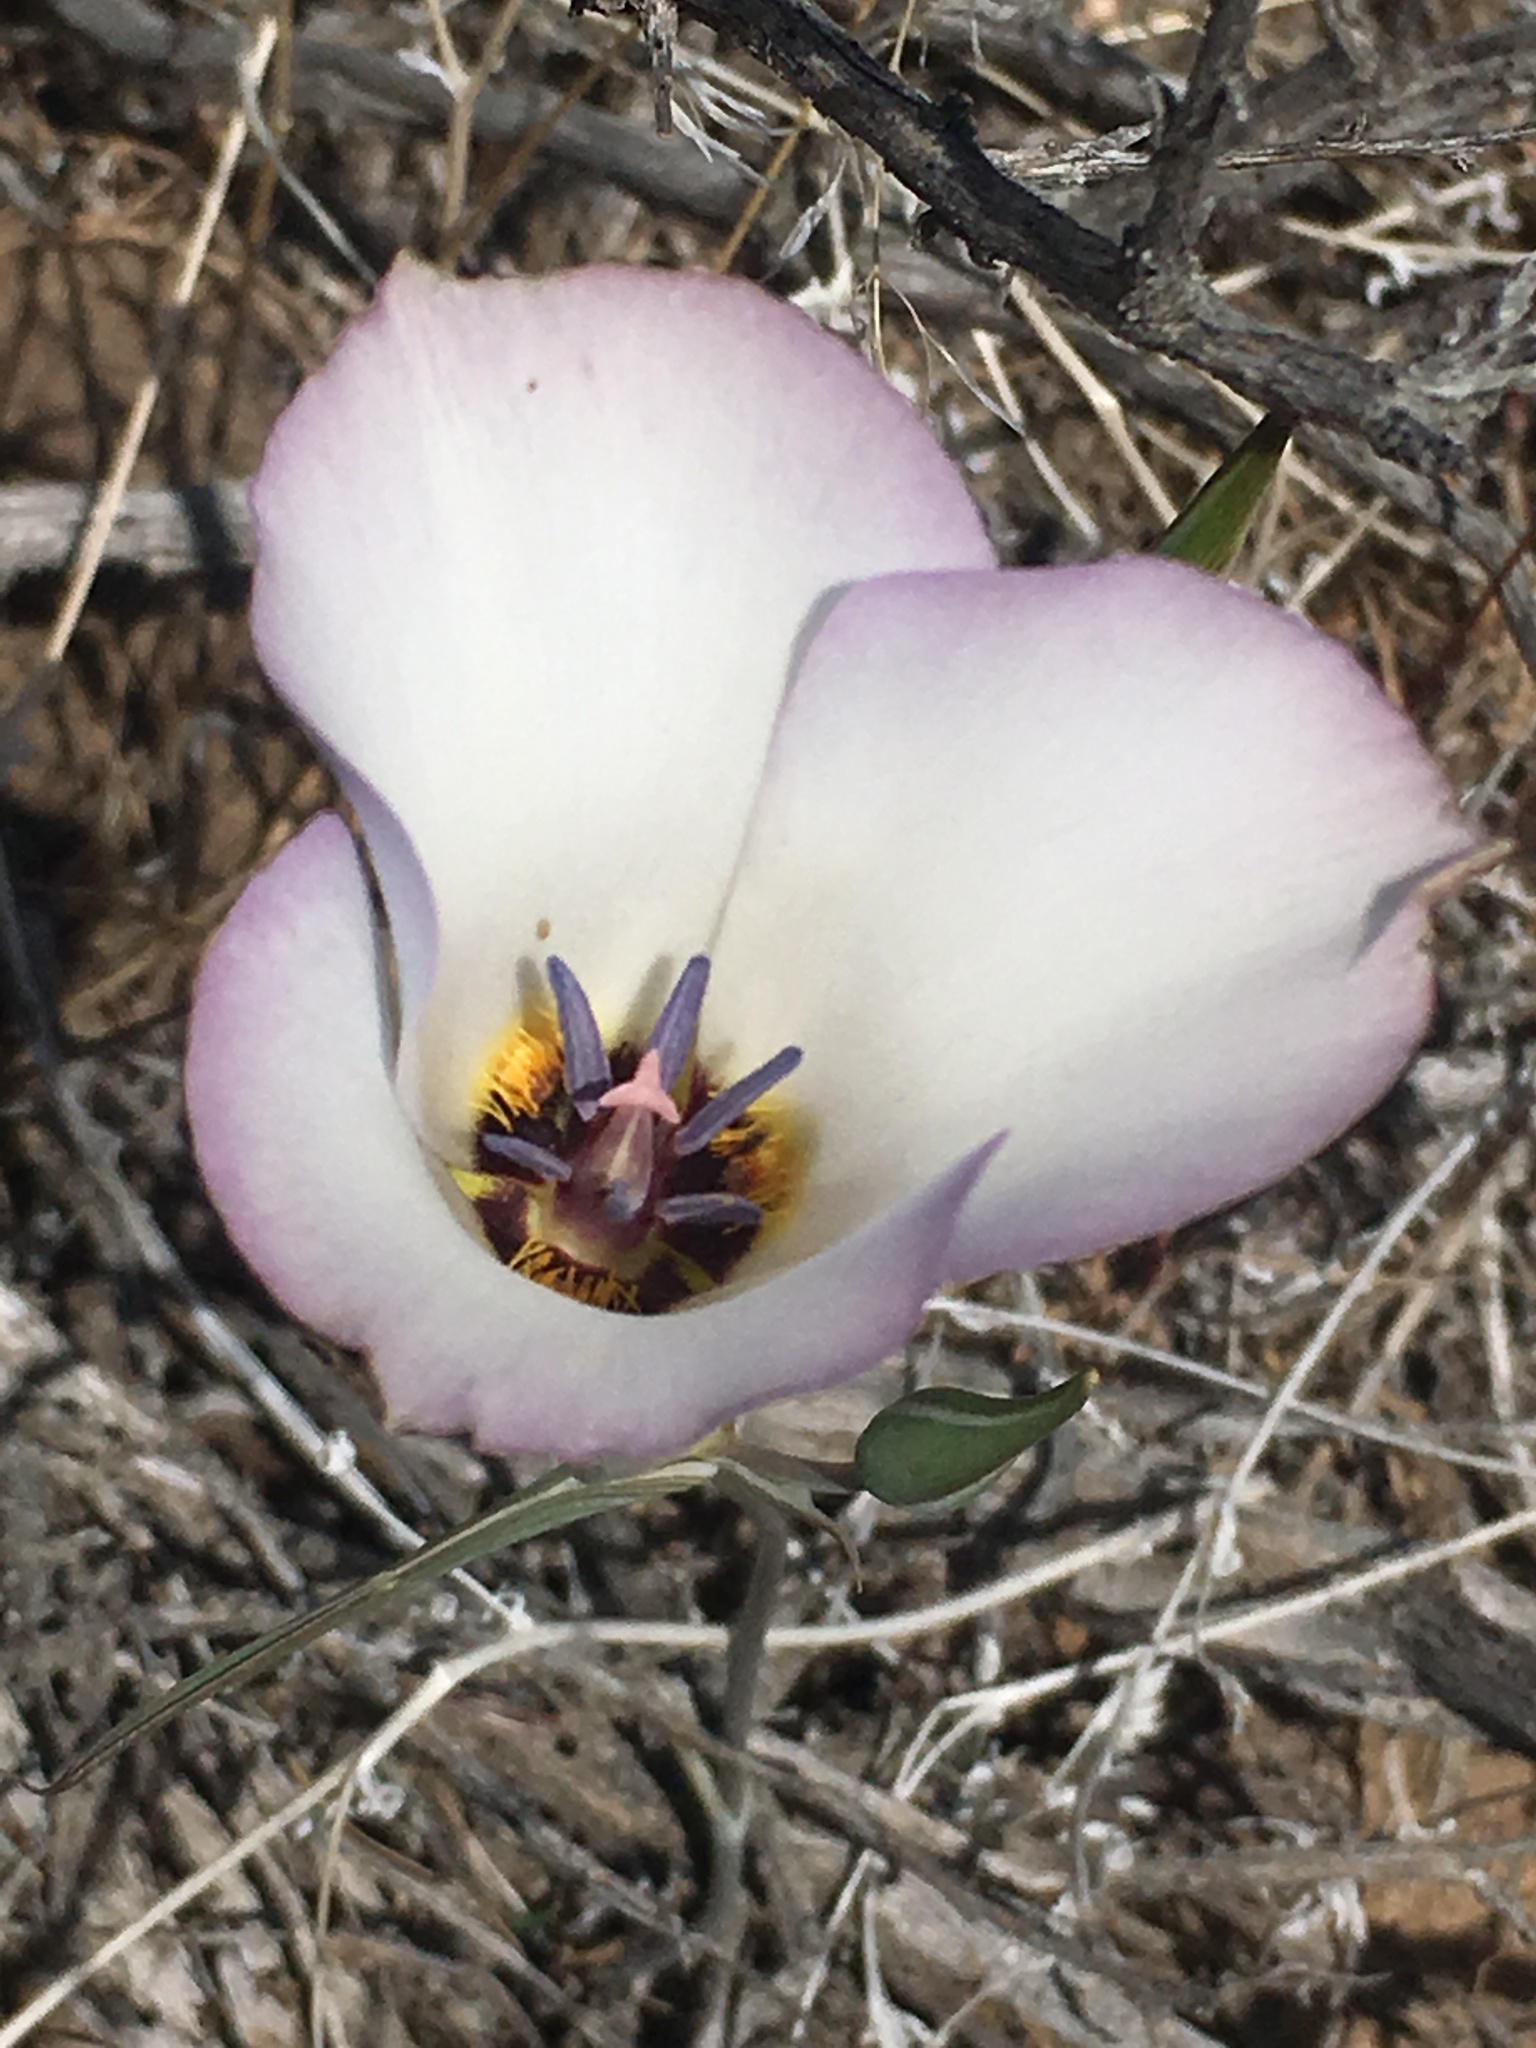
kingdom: Plantae
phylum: Tracheophyta
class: Liliopsida
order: Liliales
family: Liliaceae
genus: Calochortus
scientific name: Calochortus invenustus
